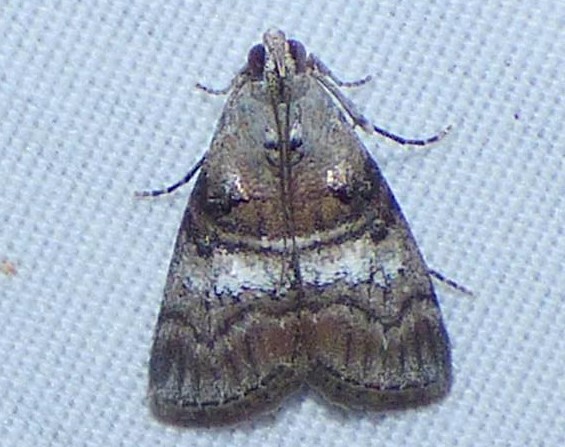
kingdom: Animalia
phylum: Arthropoda
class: Insecta
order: Lepidoptera
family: Pyralidae
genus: Pococera
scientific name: Pococera asperatella
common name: Maple webworm moth
